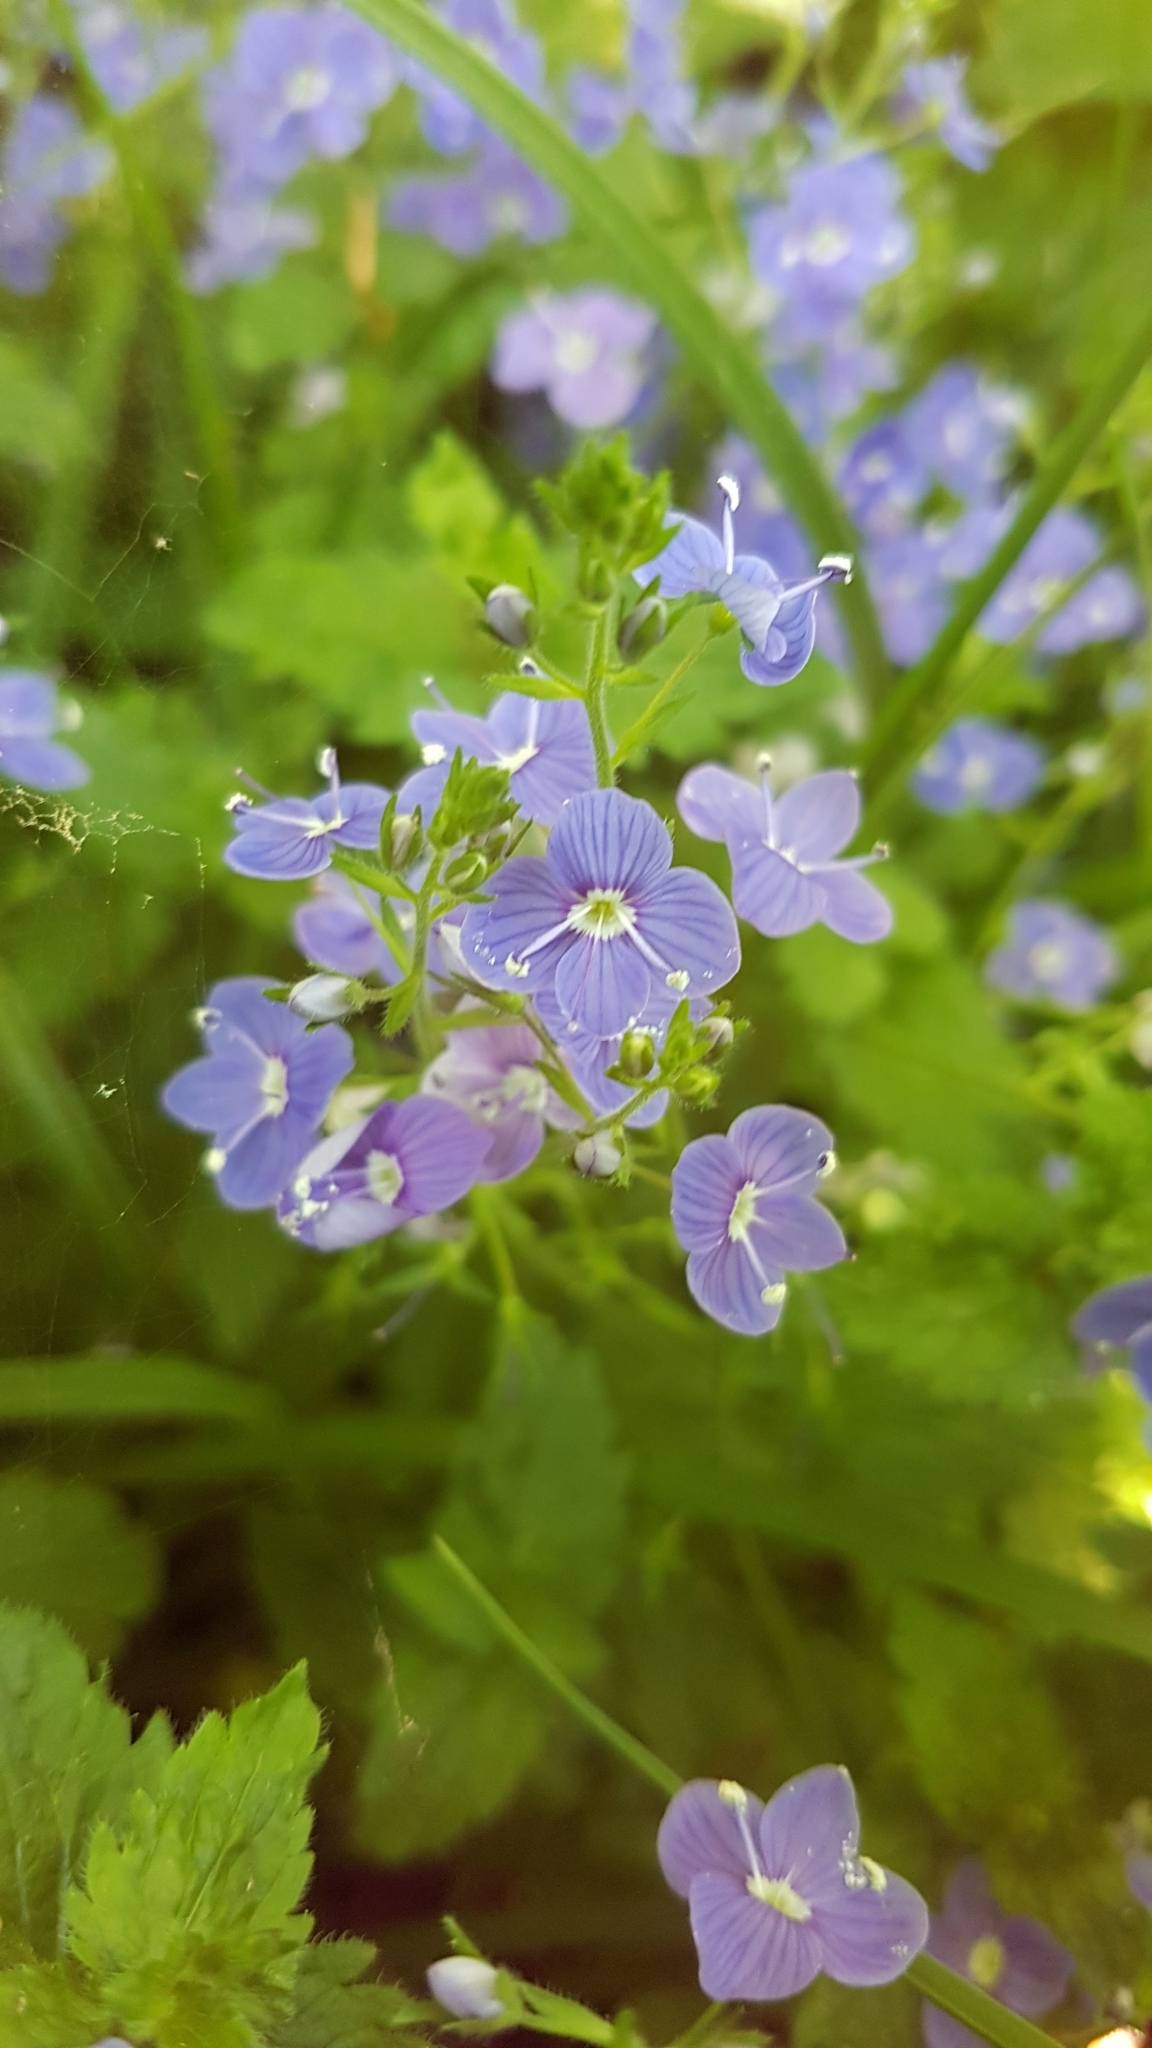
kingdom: Plantae
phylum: Tracheophyta
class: Magnoliopsida
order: Lamiales
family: Plantaginaceae
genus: Veronica
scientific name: Veronica chamaedrys
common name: Germander speedwell
